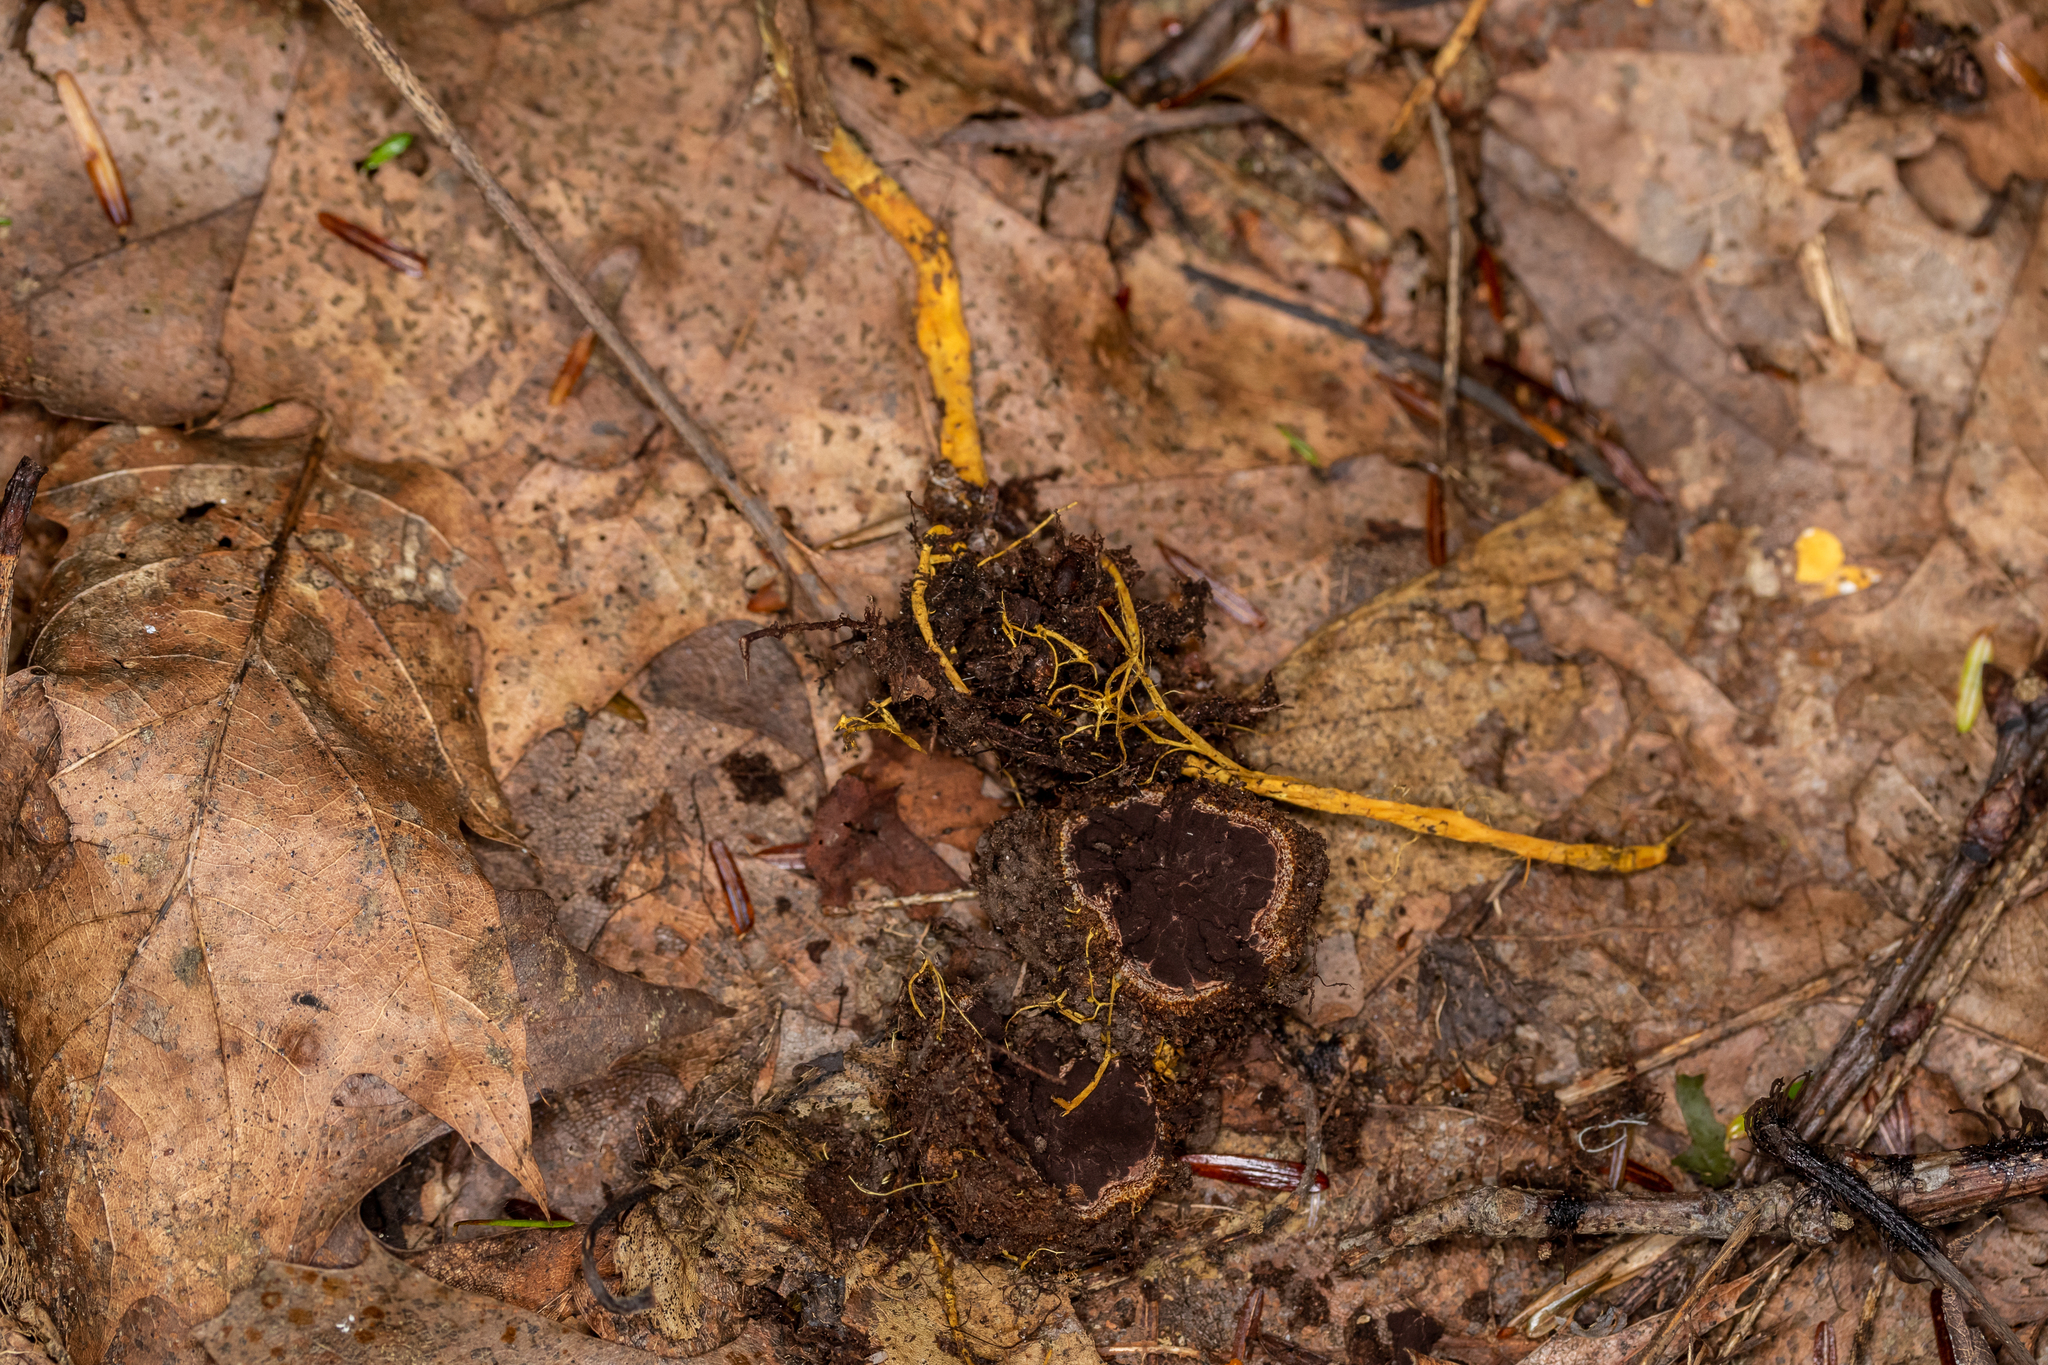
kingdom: Fungi
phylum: Ascomycota
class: Sordariomycetes
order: Hypocreales
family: Ophiocordycipitaceae
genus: Tolypocladium
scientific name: Tolypocladium ophioglossoides
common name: Snaketongue truffleclub
